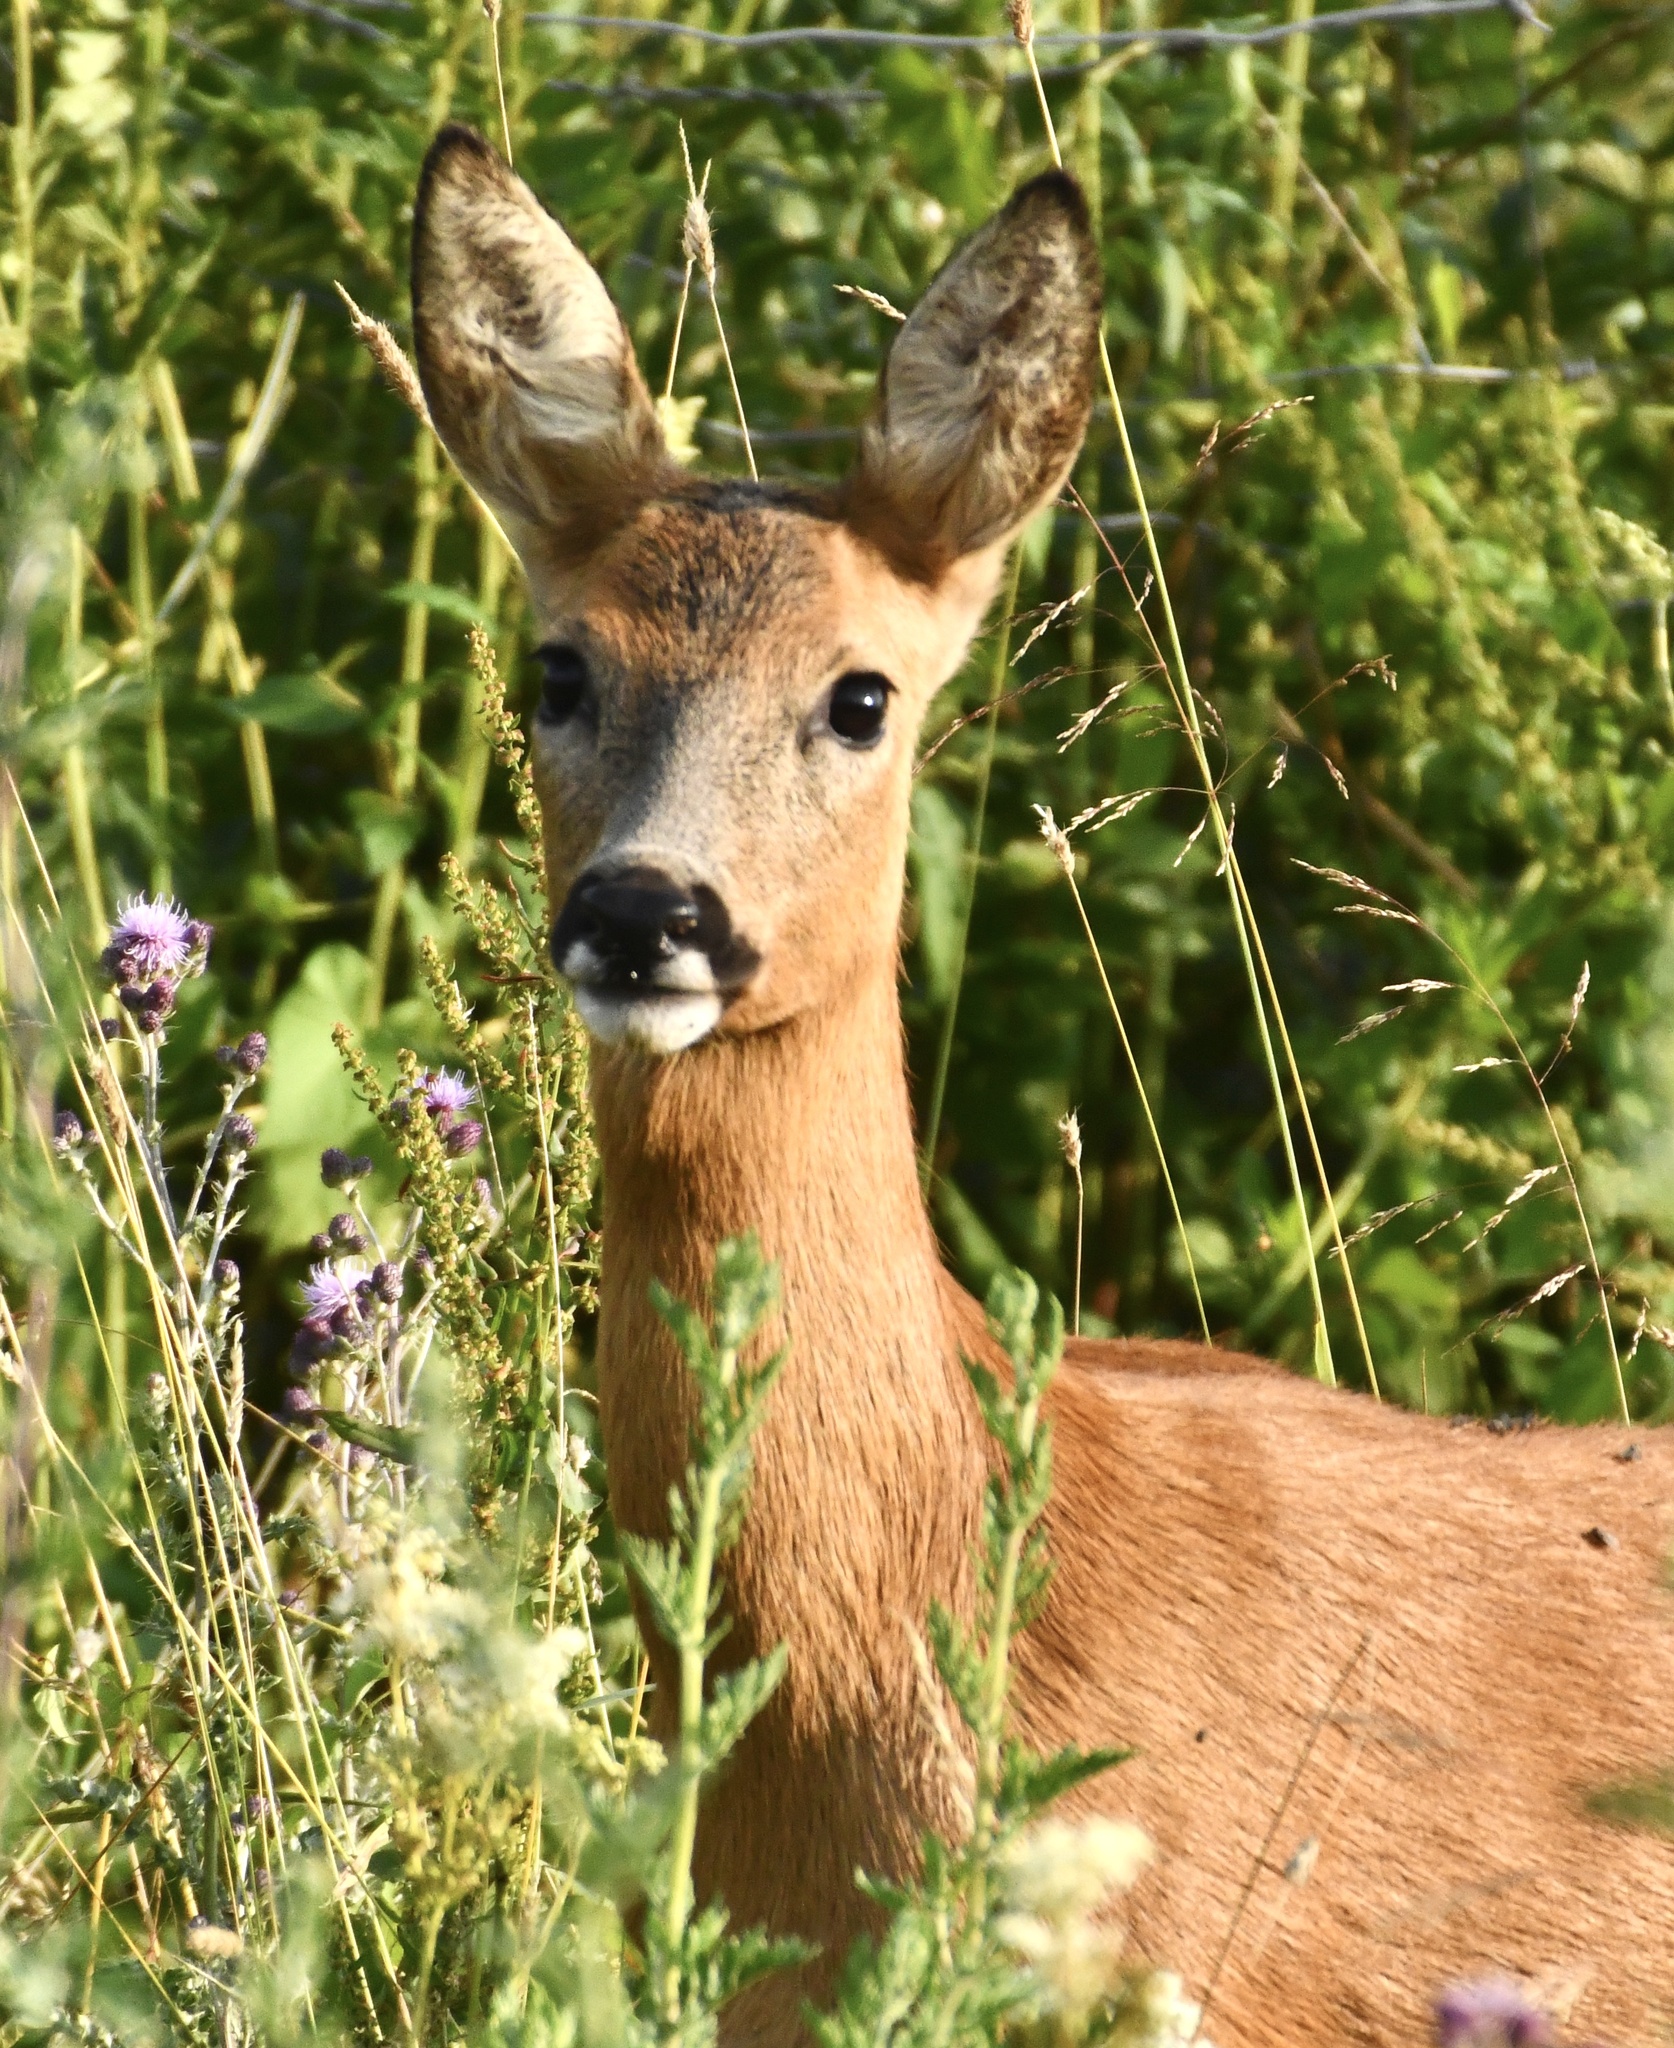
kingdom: Animalia
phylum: Chordata
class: Mammalia
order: Artiodactyla
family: Cervidae
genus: Capreolus
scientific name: Capreolus capreolus
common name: Western roe deer
